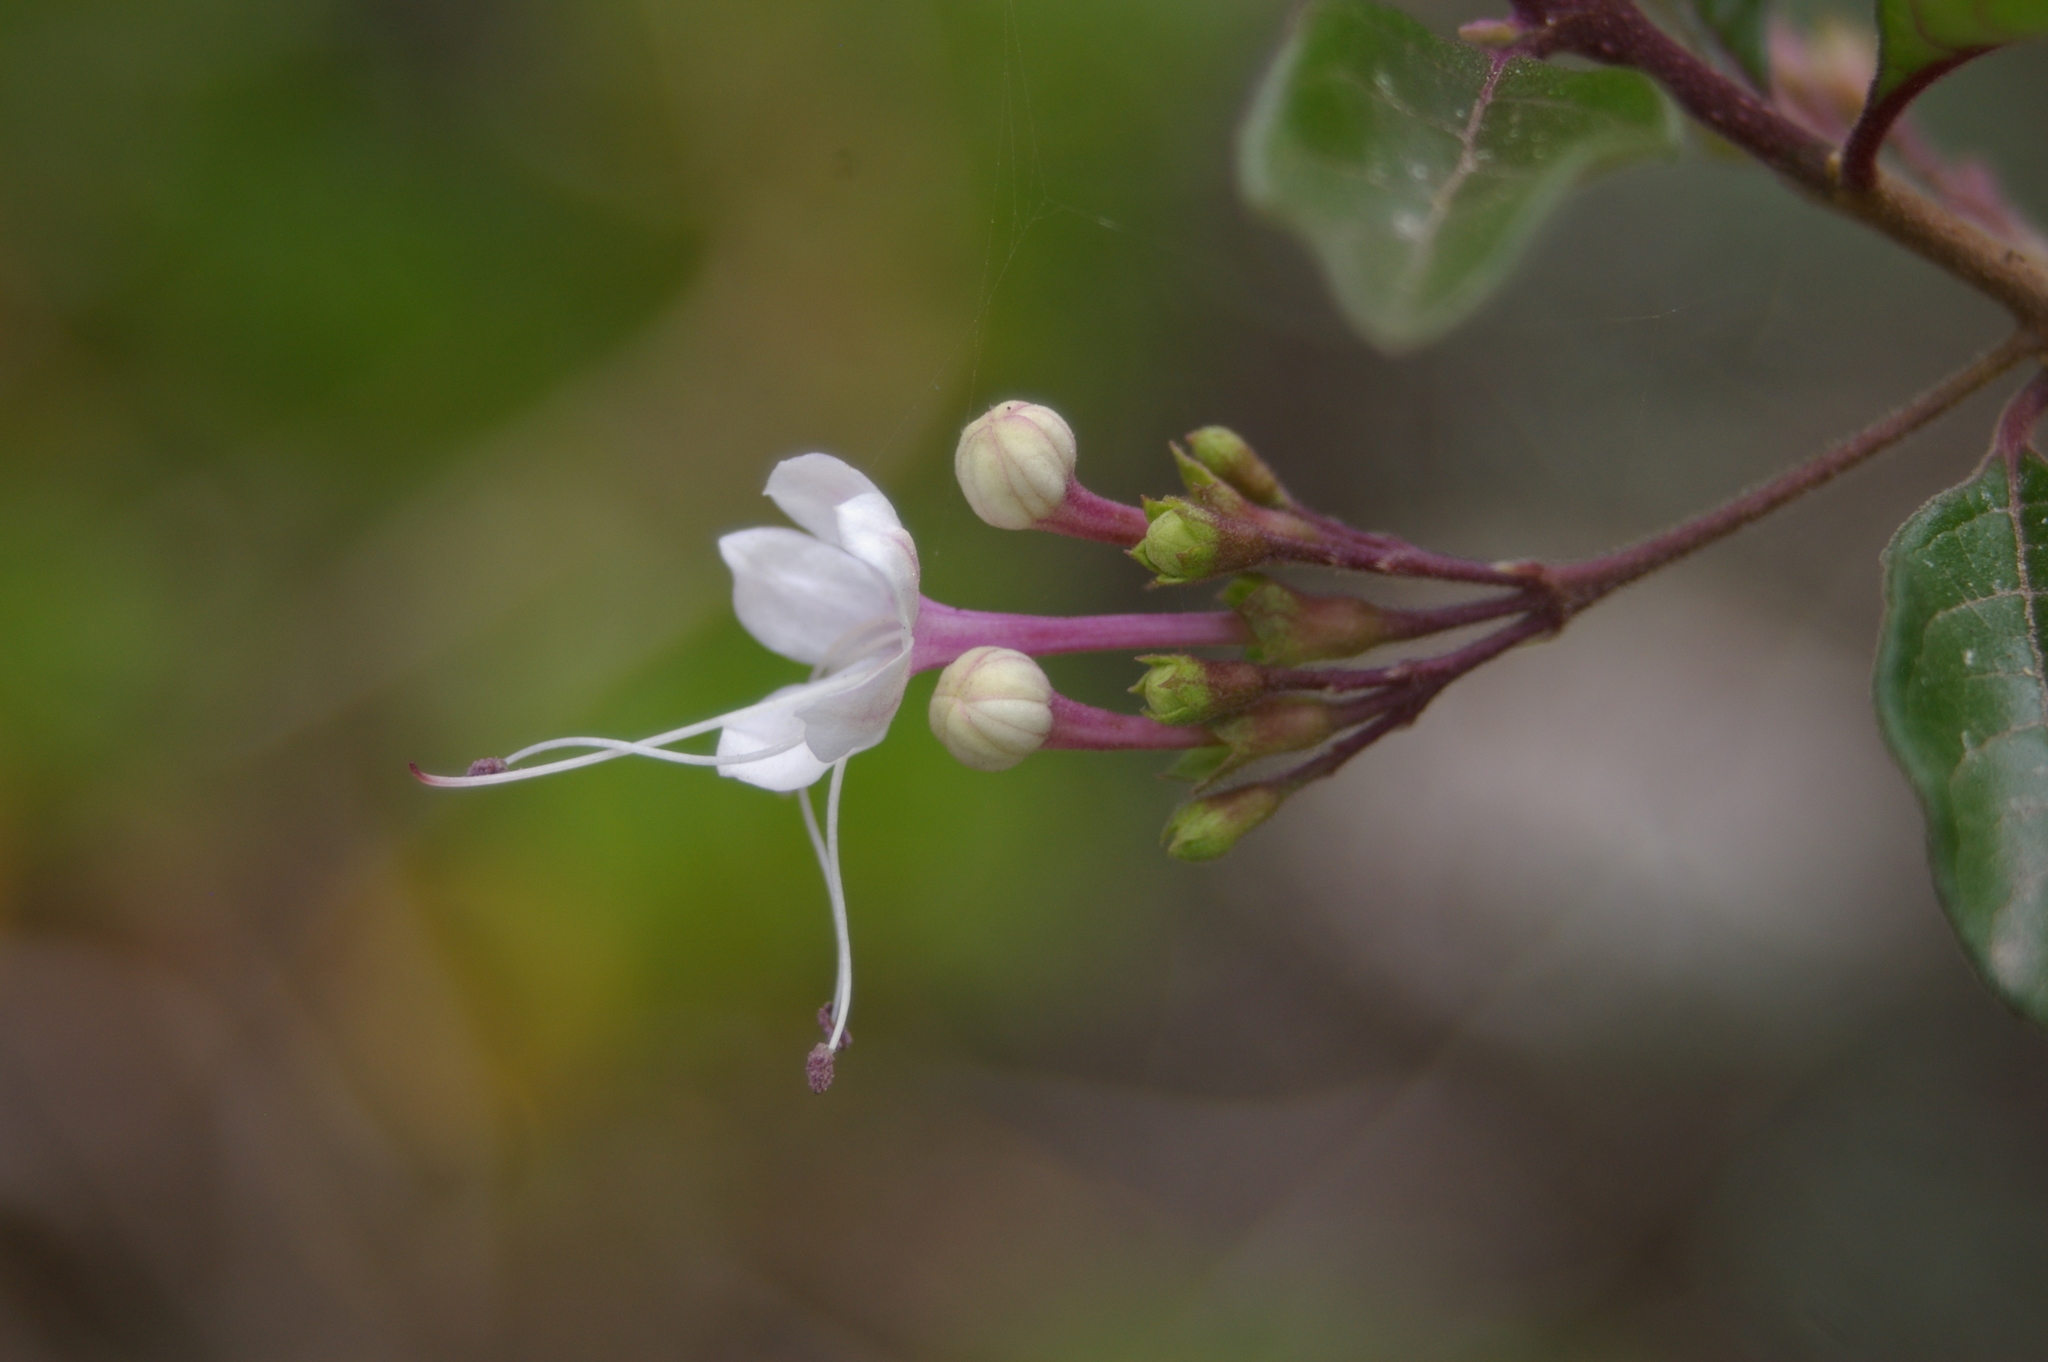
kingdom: Plantae
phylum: Tracheophyta
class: Magnoliopsida
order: Lamiales
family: Lamiaceae
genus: Volkameria
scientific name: Volkameria mollis
